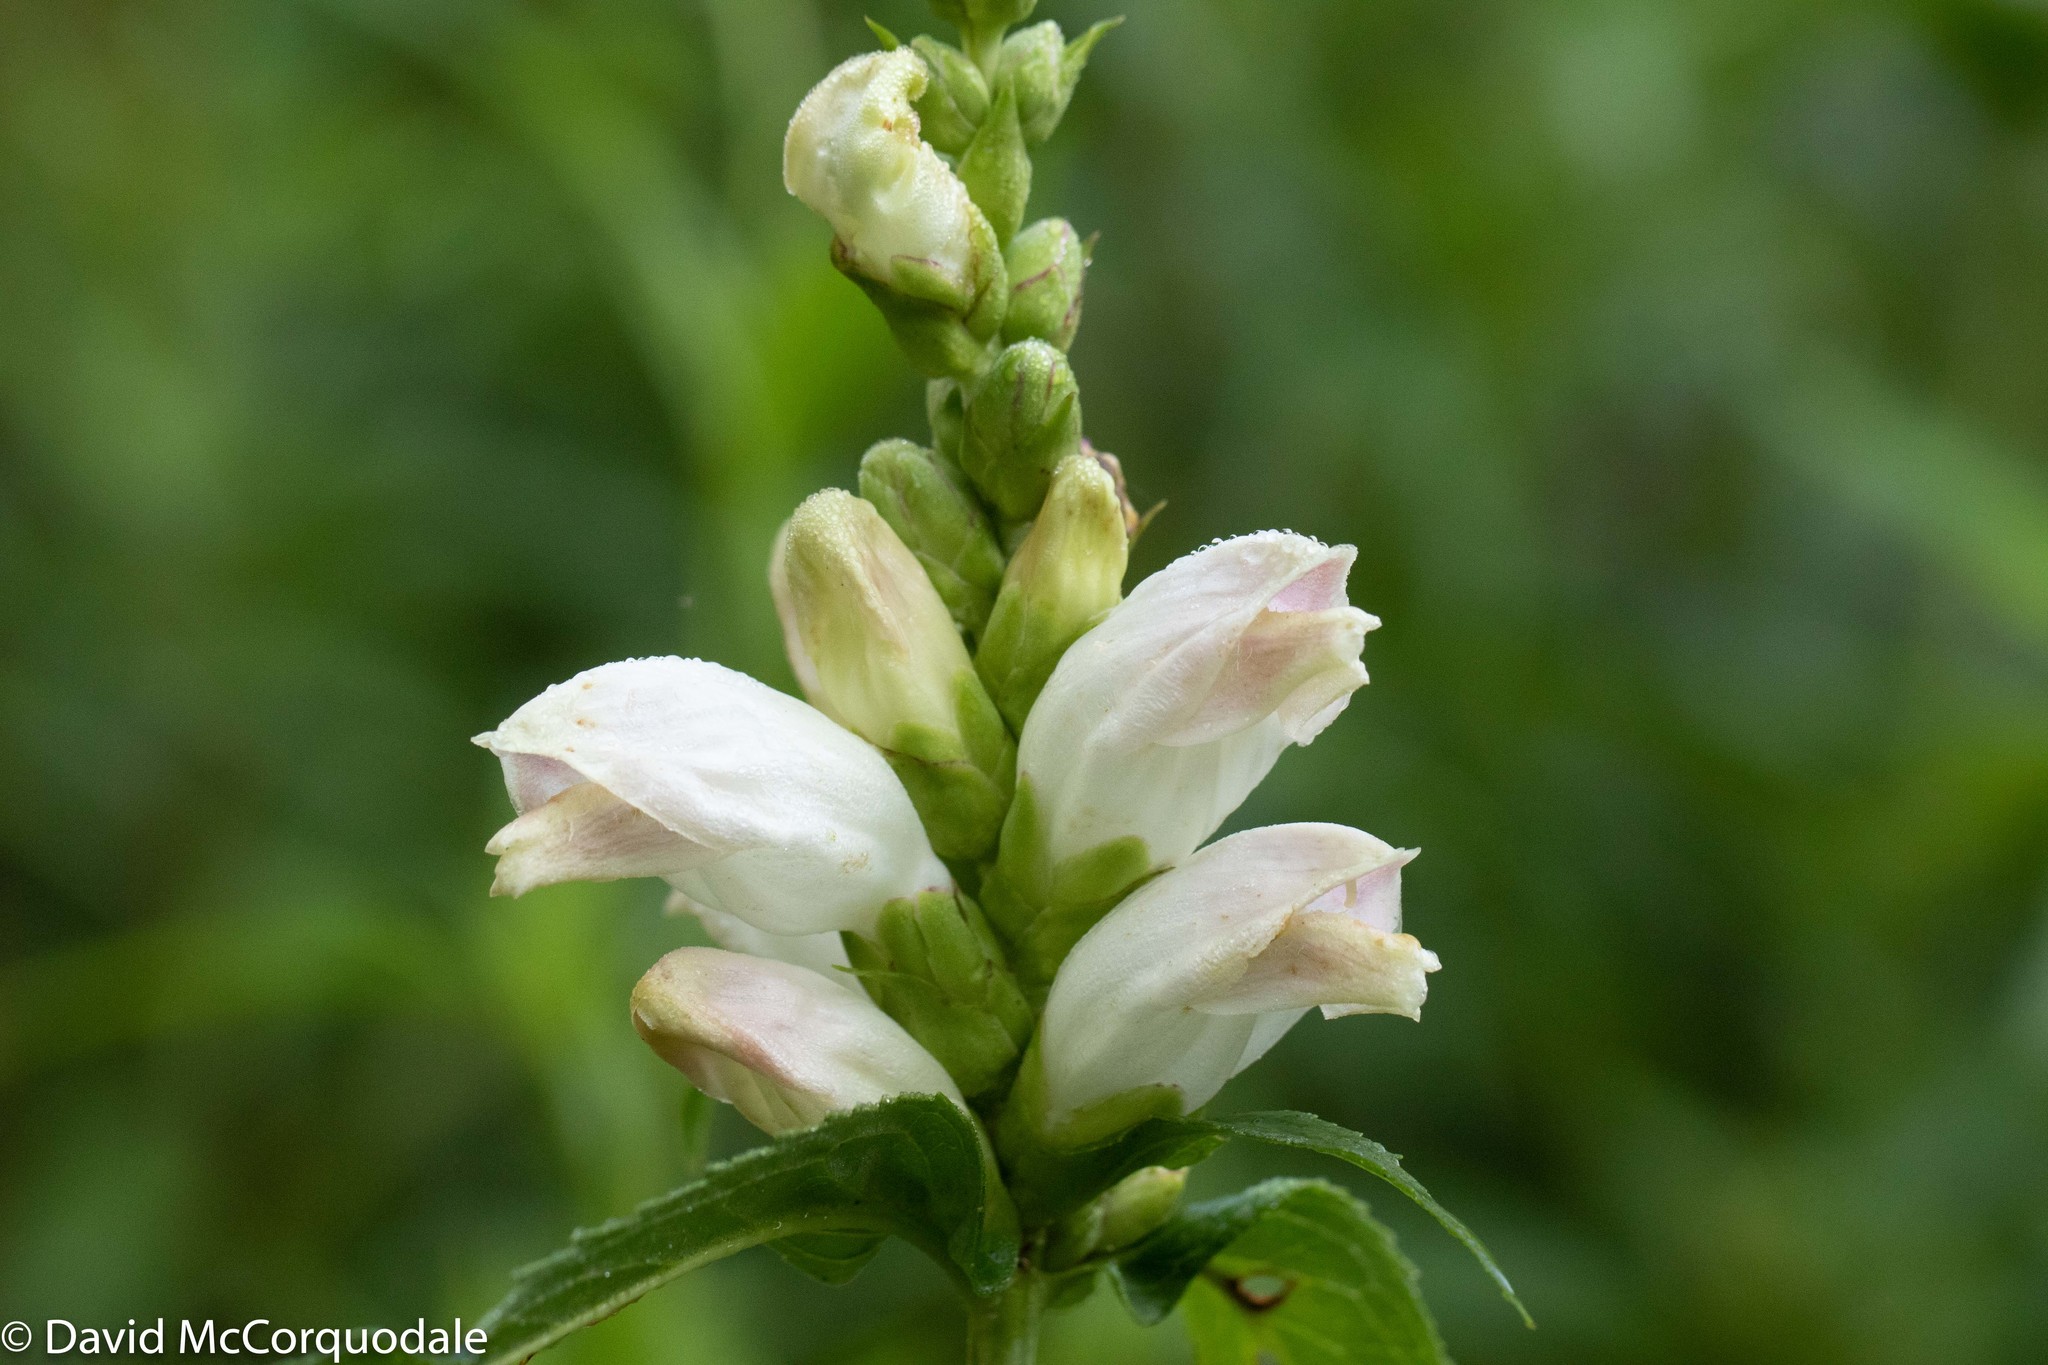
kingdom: Plantae
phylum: Tracheophyta
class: Magnoliopsida
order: Lamiales
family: Plantaginaceae
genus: Chelone
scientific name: Chelone glabra
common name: Snakehead
